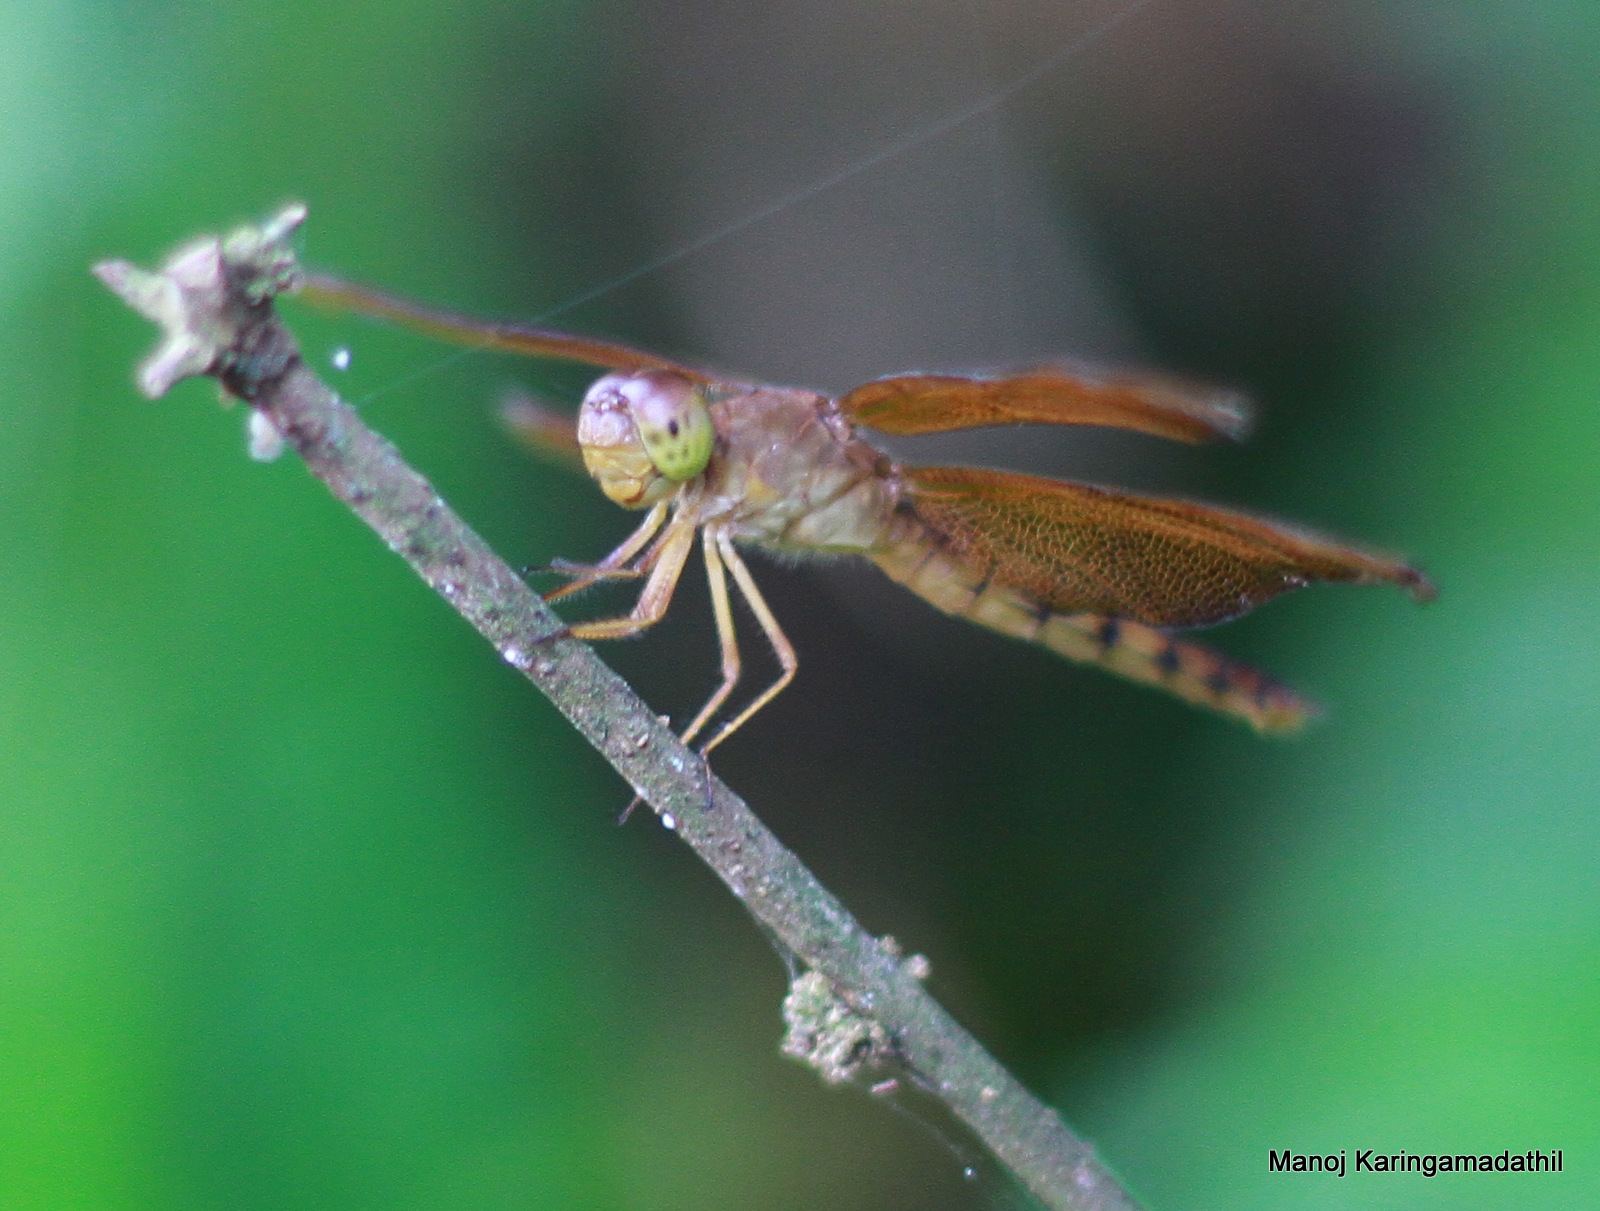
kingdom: Animalia
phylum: Arthropoda
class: Insecta
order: Odonata
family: Libellulidae
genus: Neurothemis
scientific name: Neurothemis fulvia
